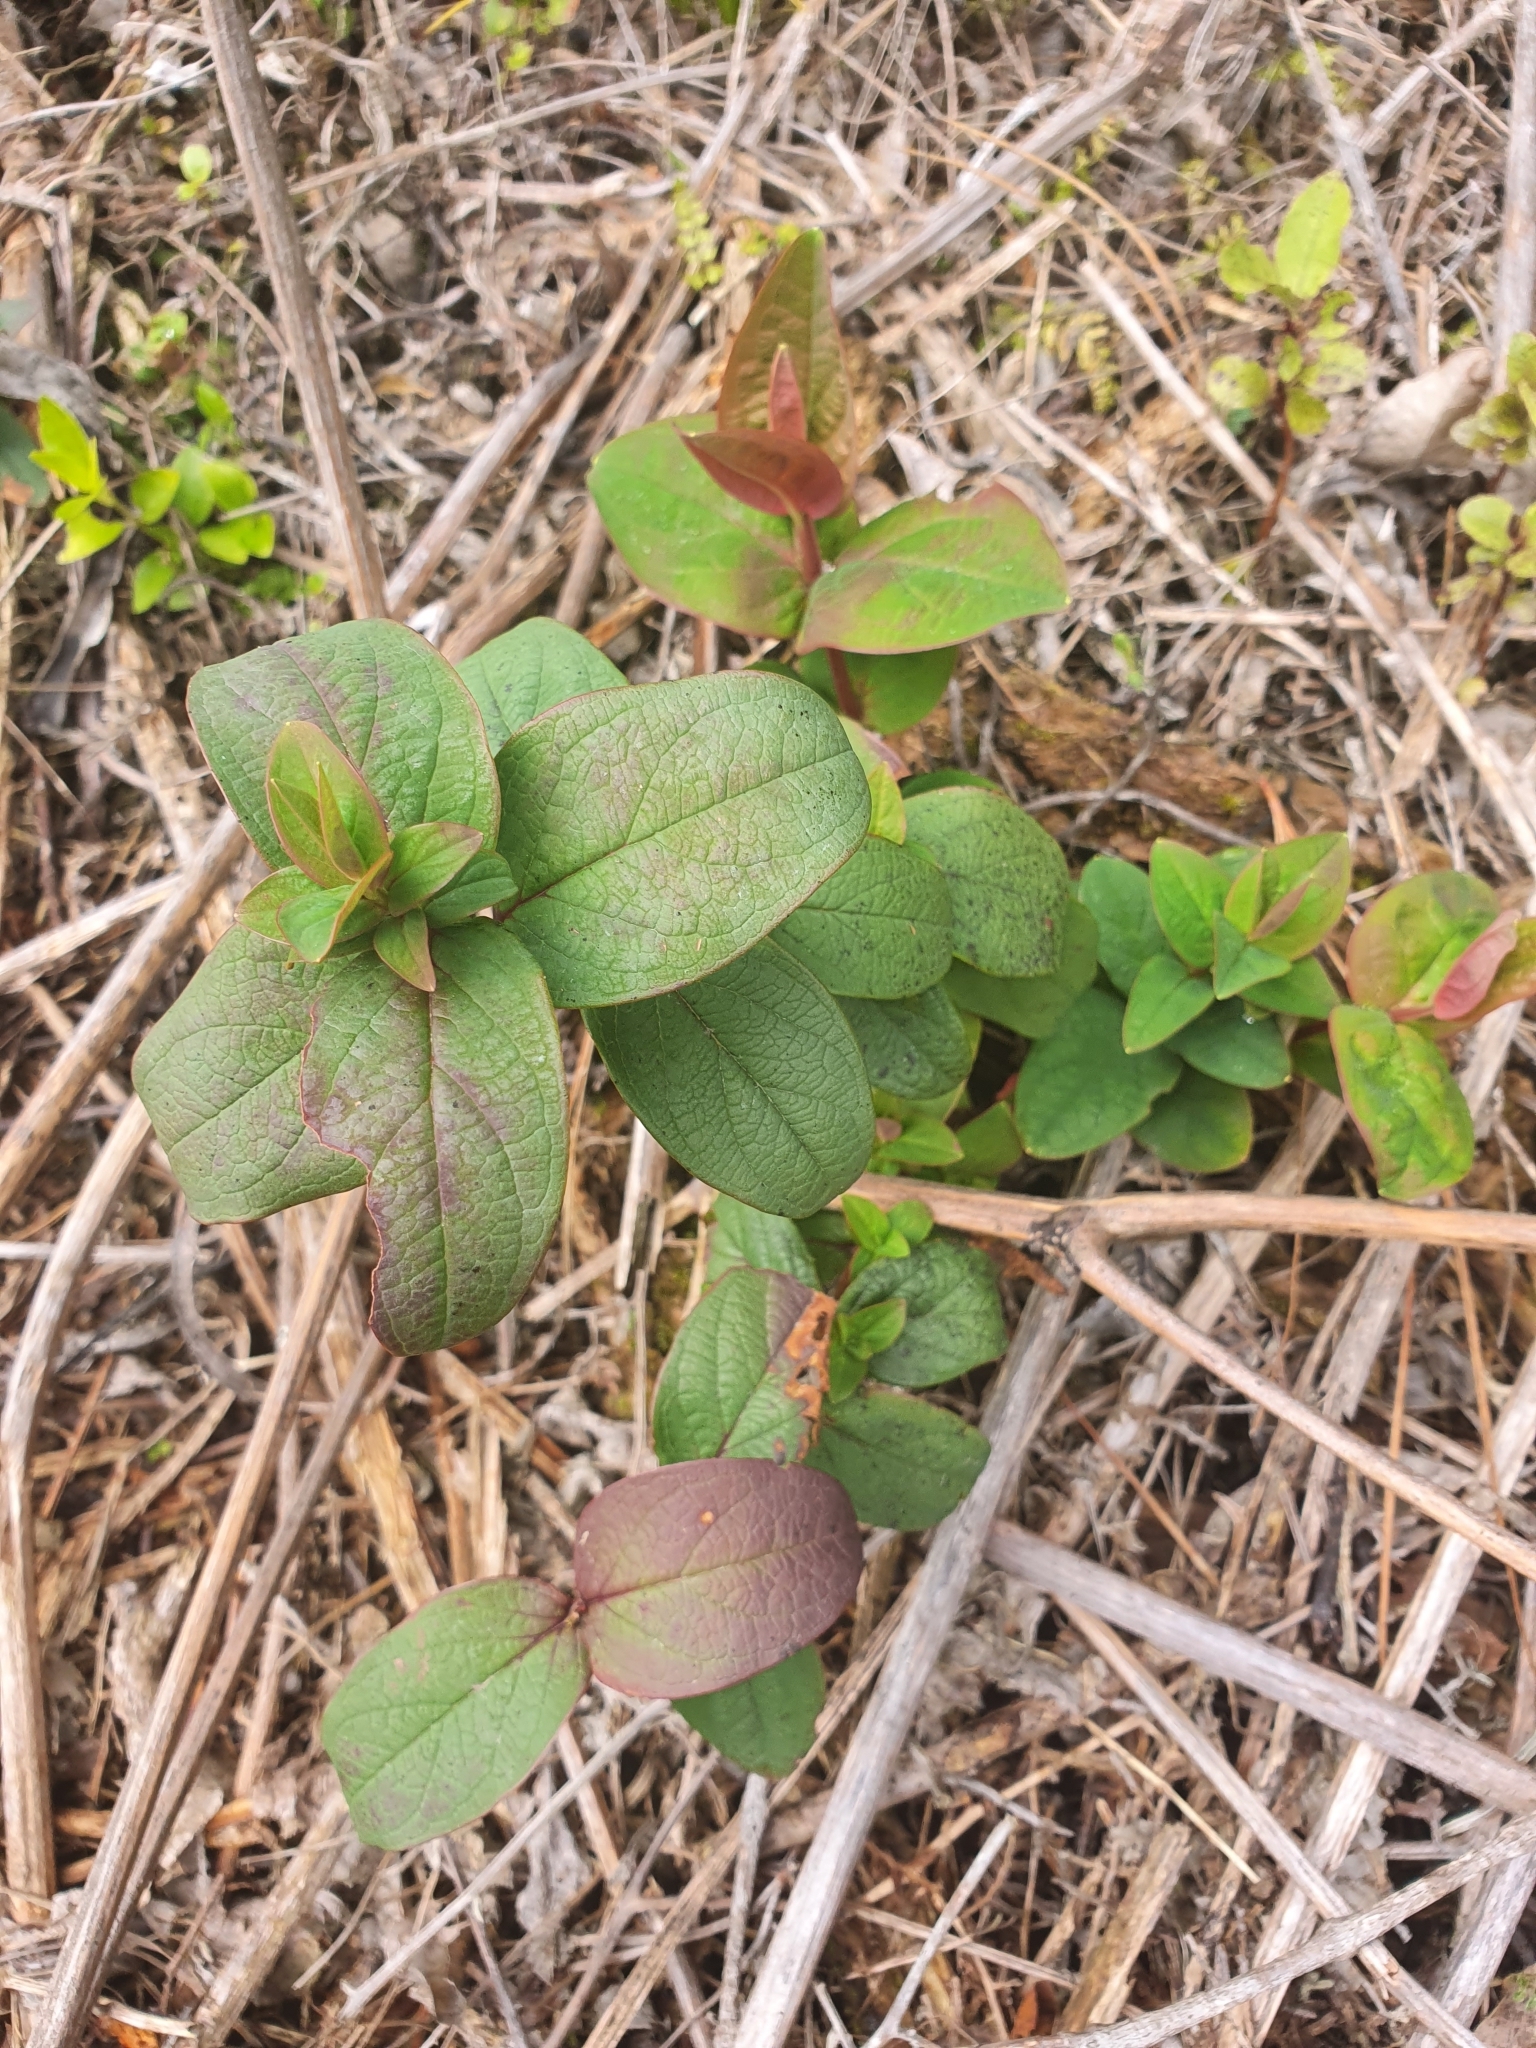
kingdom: Plantae
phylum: Tracheophyta
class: Magnoliopsida
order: Dipsacales
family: Caprifoliaceae
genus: Lonicera
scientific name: Lonicera japonica
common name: Japanese honeysuckle
